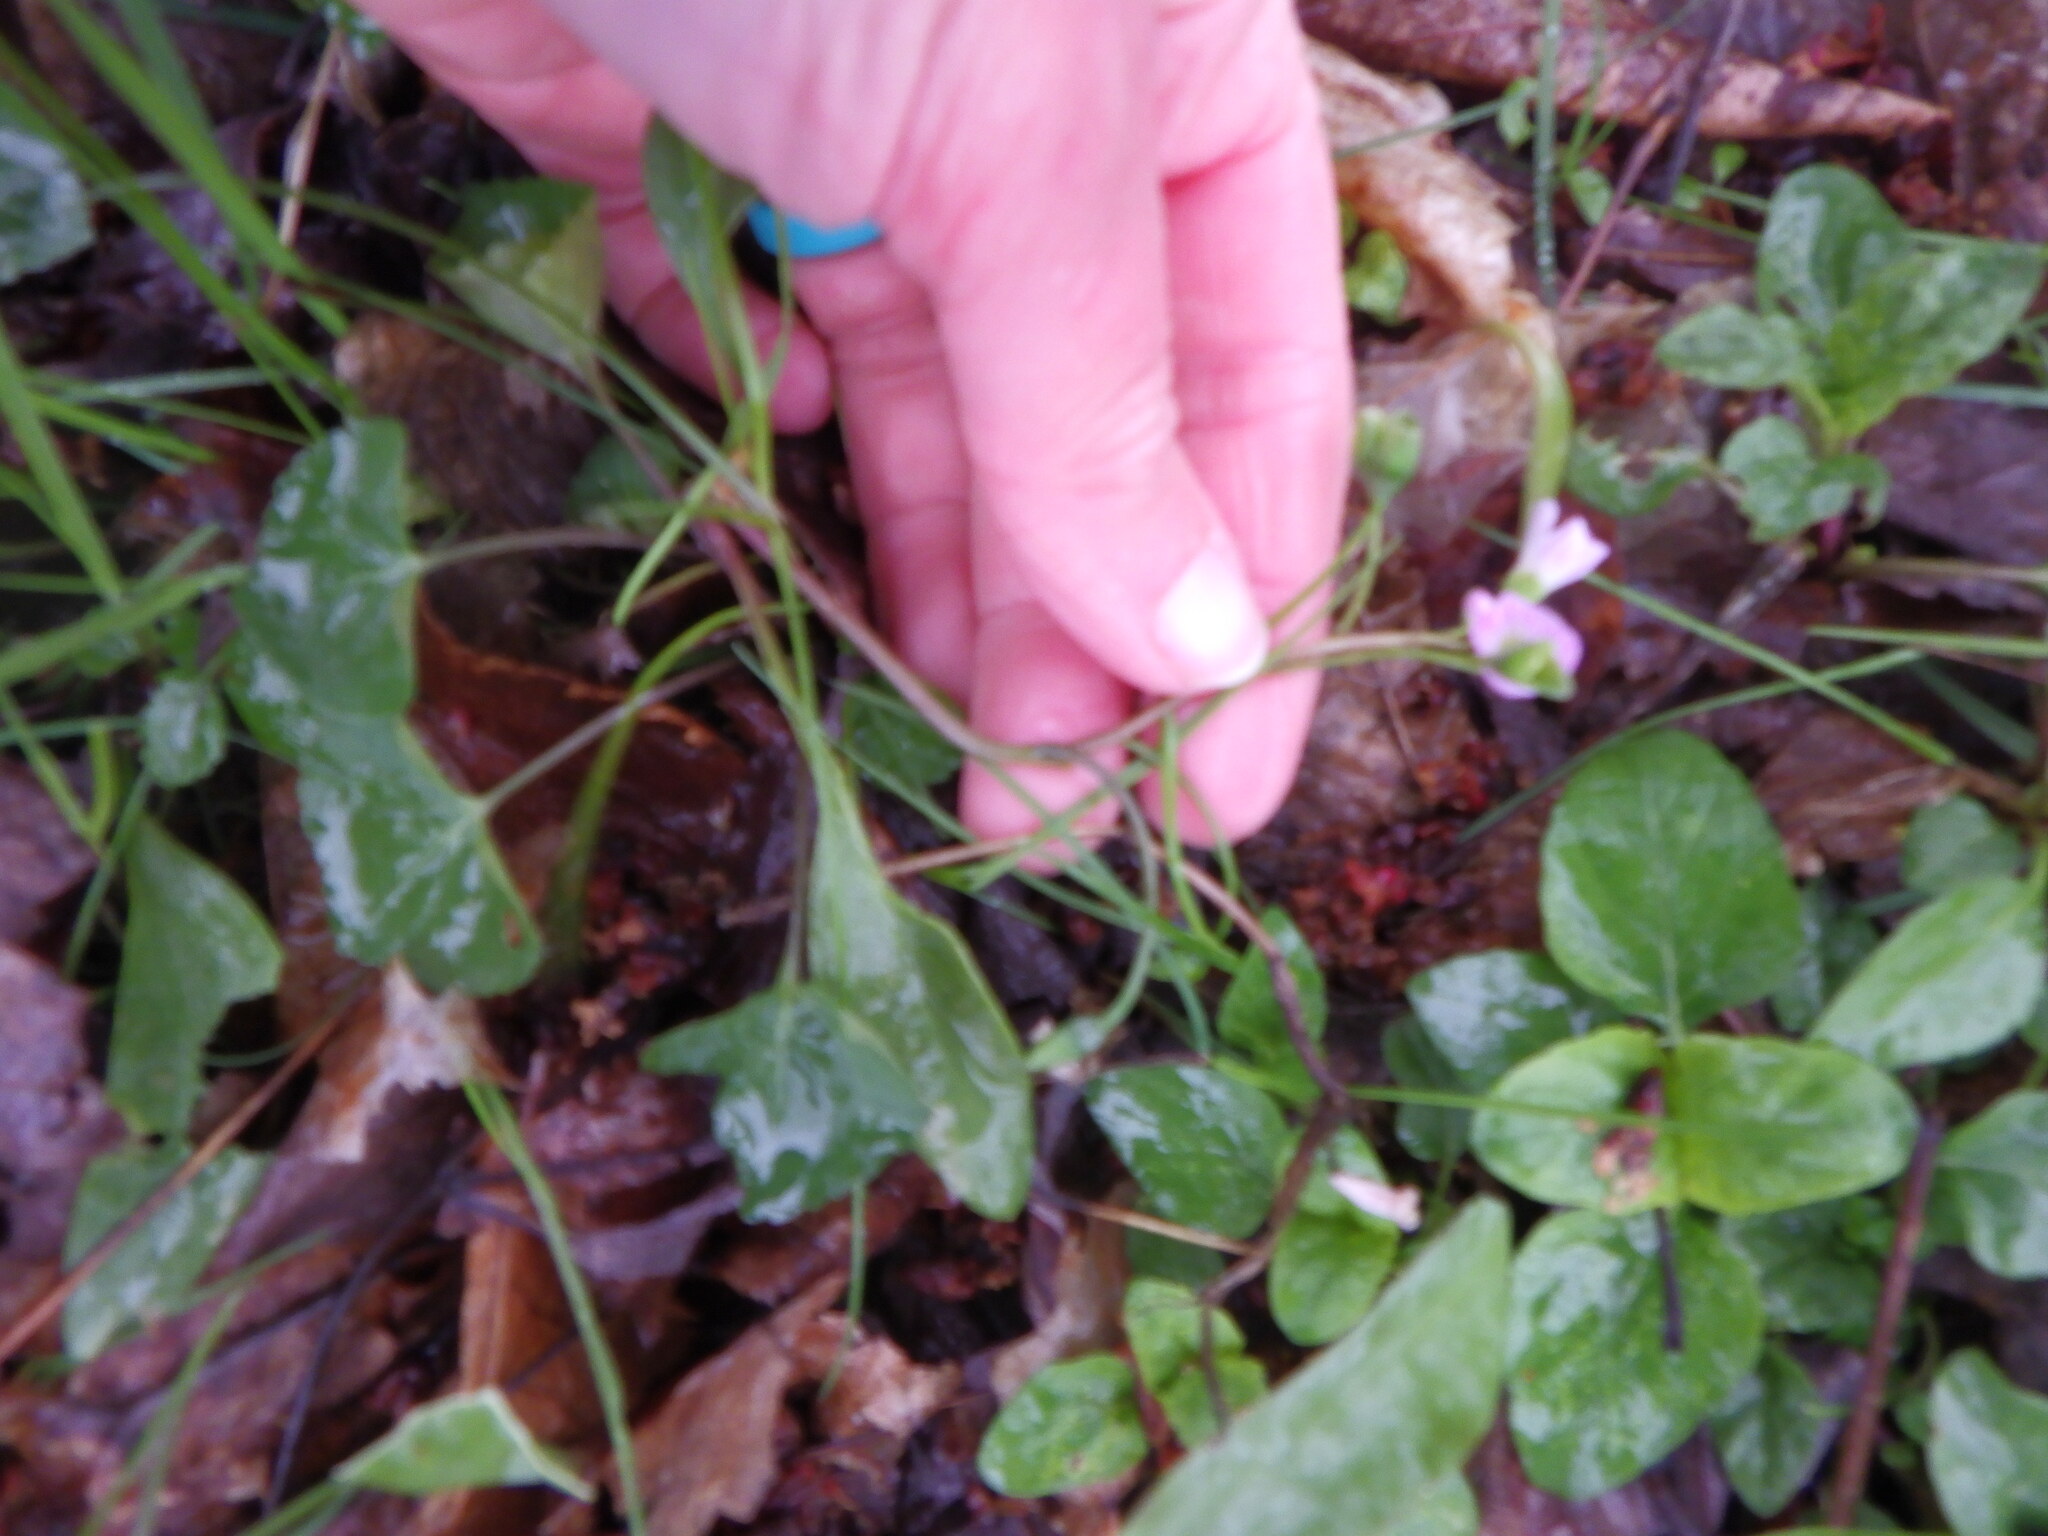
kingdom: Plantae
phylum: Tracheophyta
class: Magnoliopsida
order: Caryophyllales
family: Montiaceae
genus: Claytonia
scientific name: Claytonia caroliniana
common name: Carolina spring beauty
